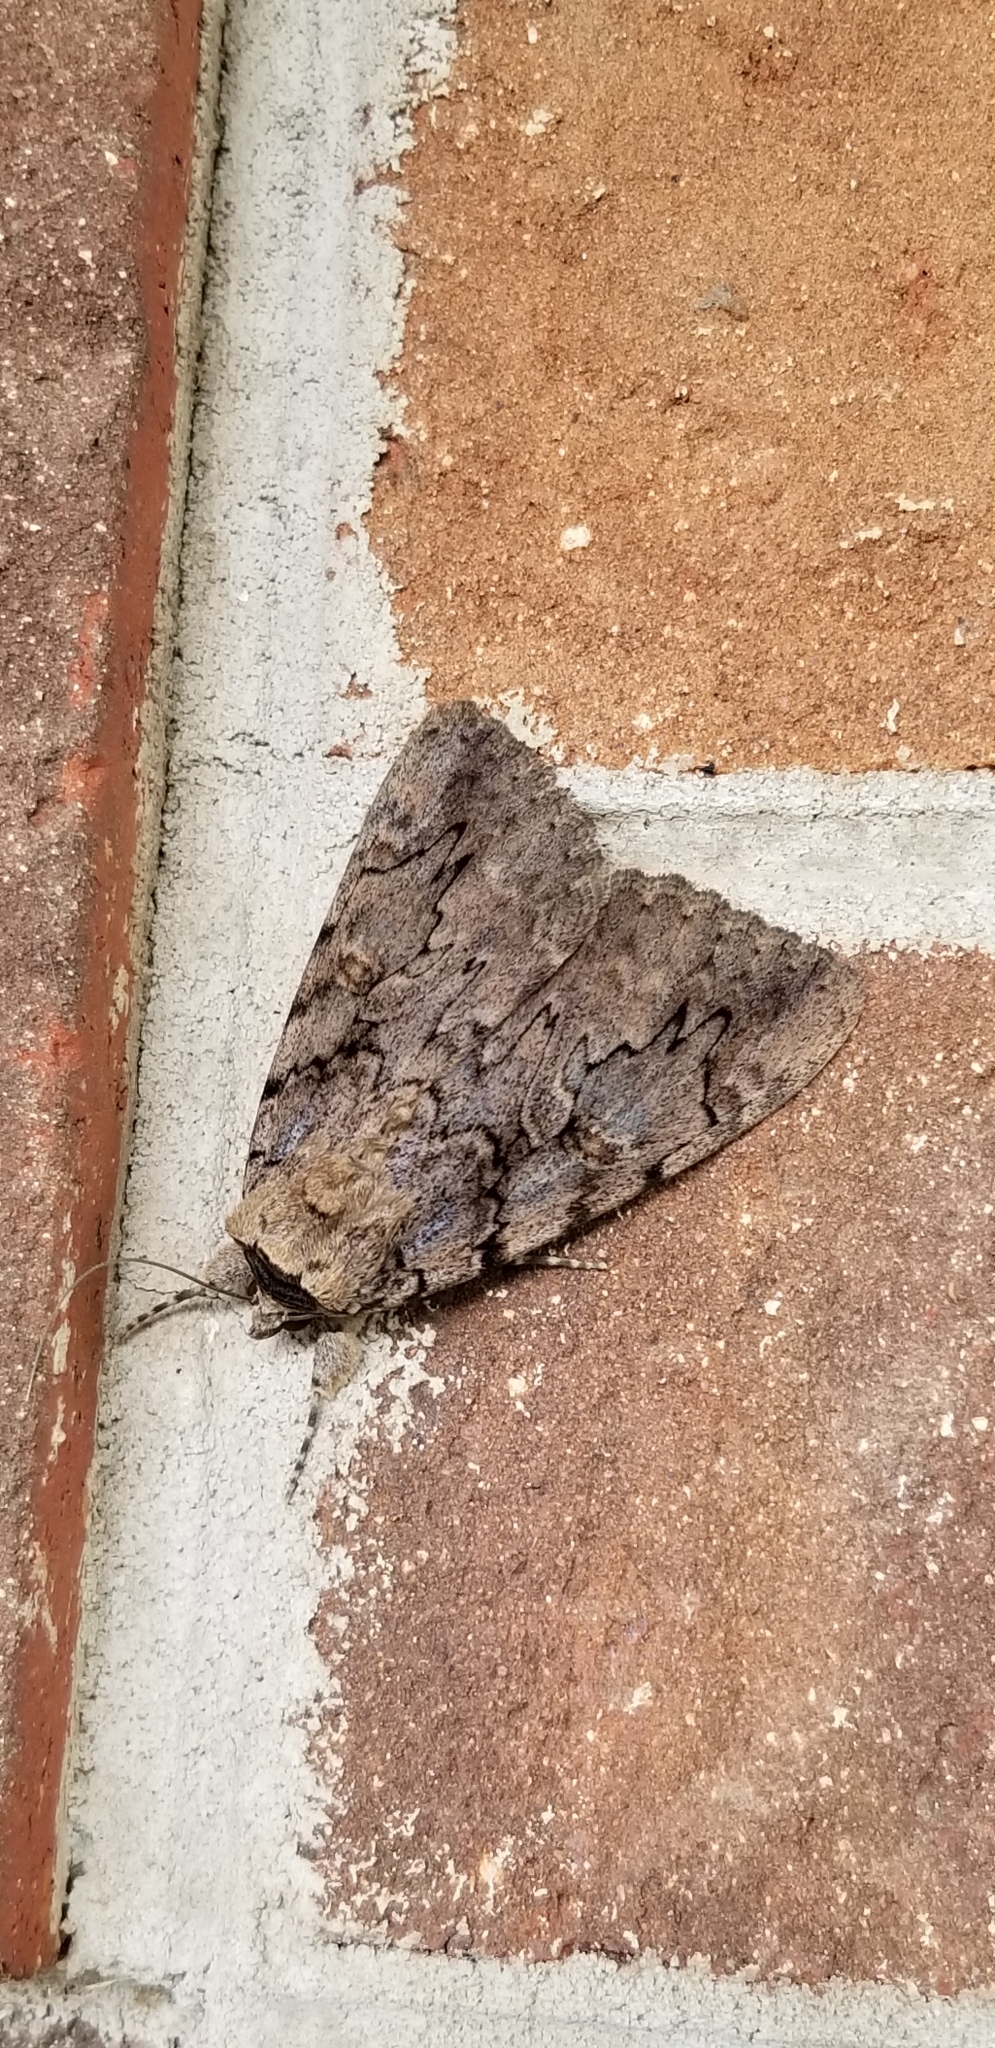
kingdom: Animalia
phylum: Arthropoda
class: Insecta
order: Lepidoptera
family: Erebidae
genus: Catocala
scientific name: Catocala amatrix
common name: Sweetheart underwing
